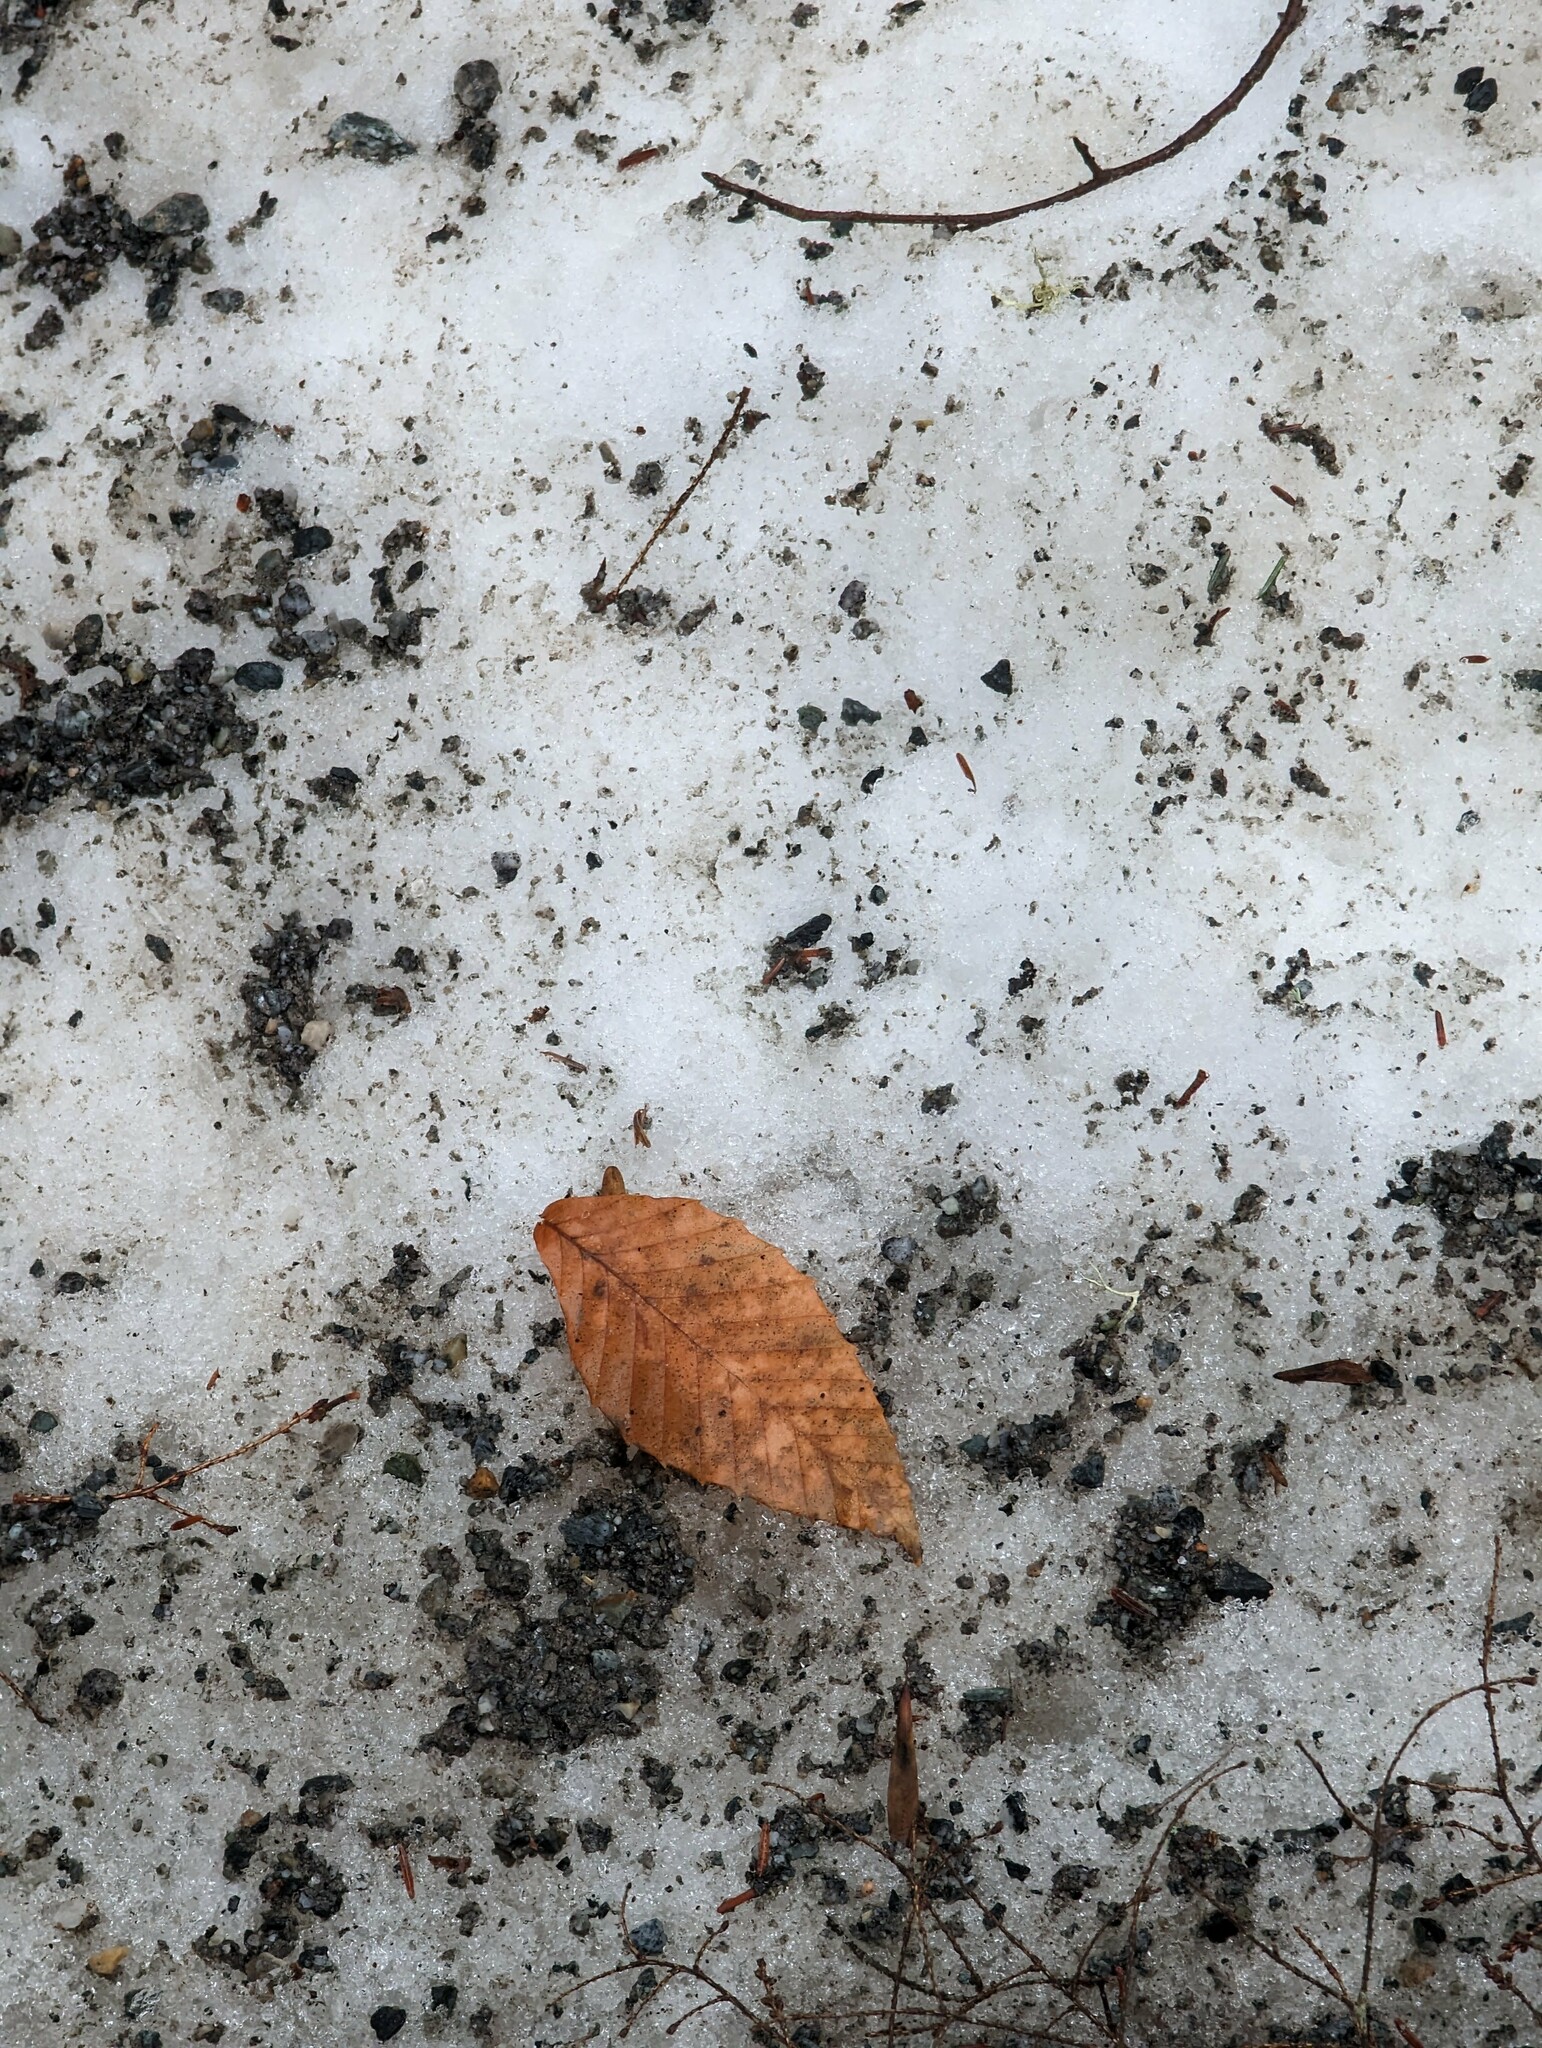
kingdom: Plantae
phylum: Tracheophyta
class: Magnoliopsida
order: Fagales
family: Fagaceae
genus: Fagus
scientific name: Fagus grandifolia
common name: American beech
